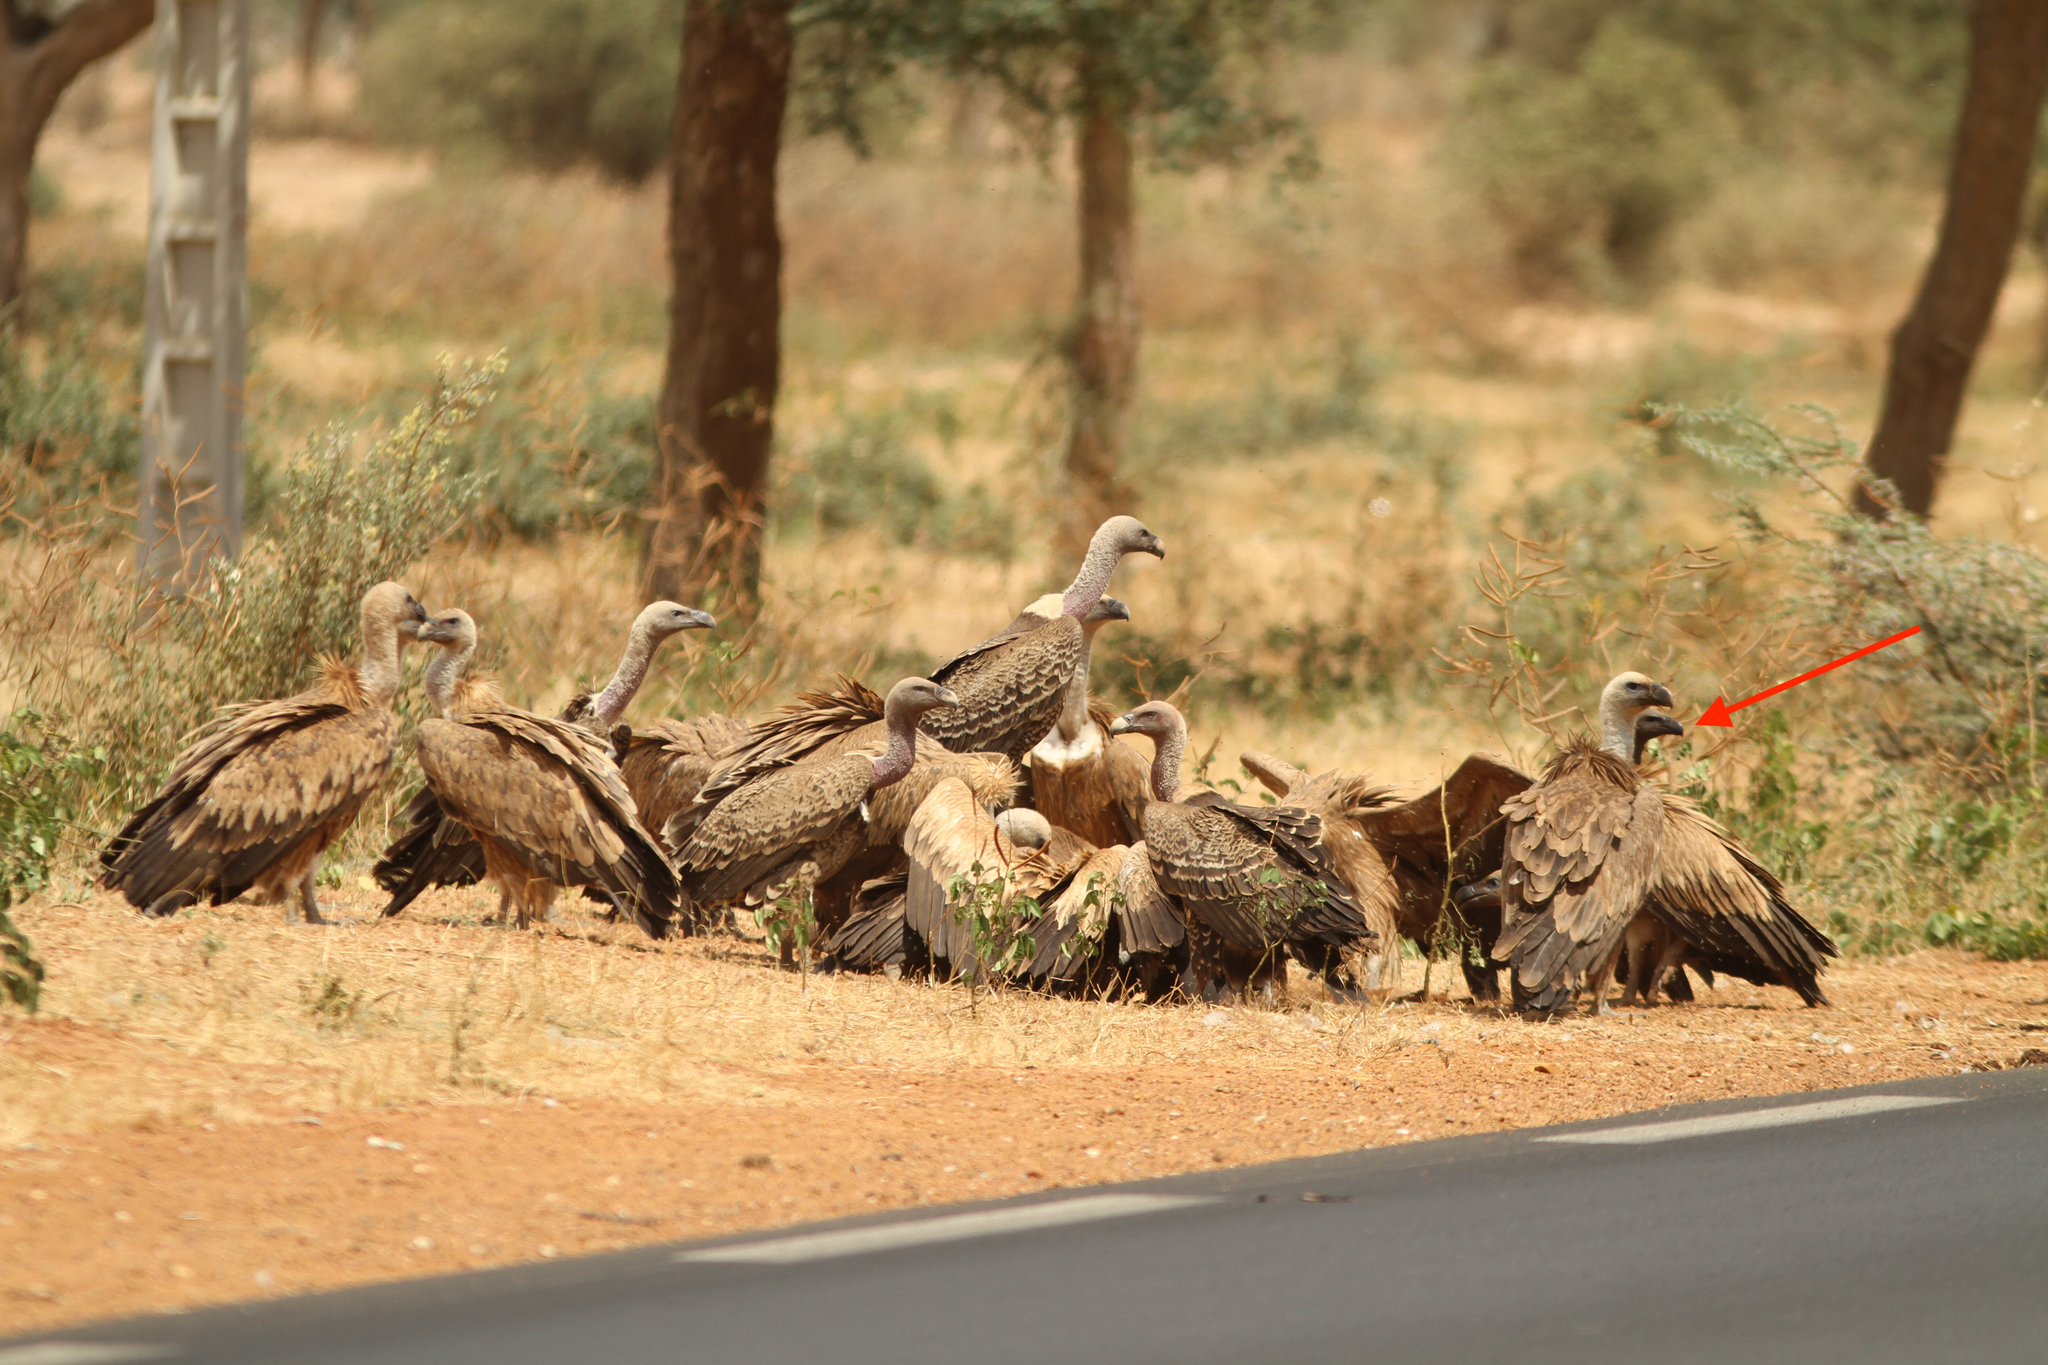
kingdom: Animalia
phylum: Chordata
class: Aves
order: Accipitriformes
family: Accipitridae
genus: Gyps
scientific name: Gyps africanus
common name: White-backed vulture
